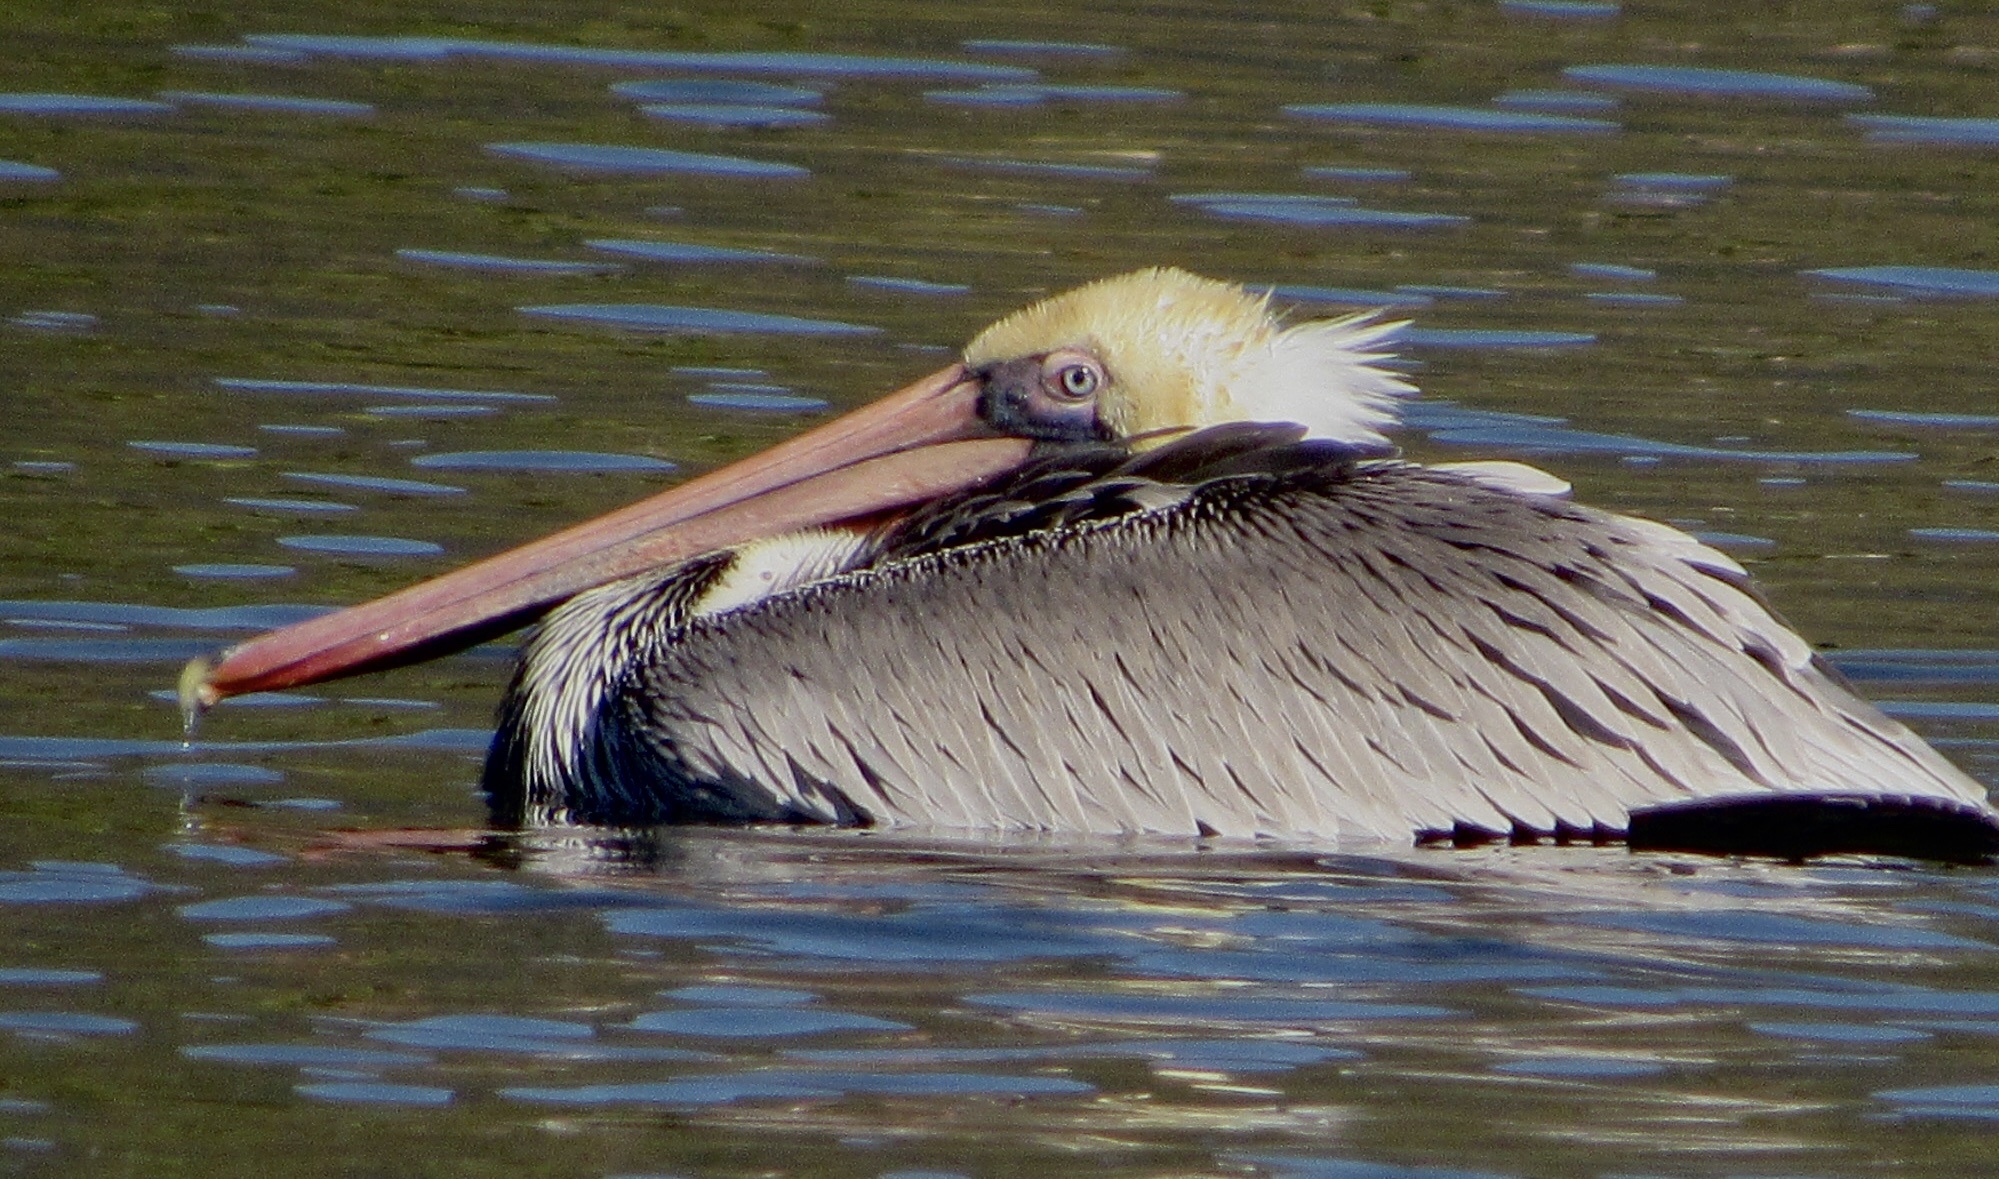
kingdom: Animalia
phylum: Chordata
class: Aves
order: Pelecaniformes
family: Pelecanidae
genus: Pelecanus
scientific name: Pelecanus occidentalis
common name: Brown pelican
